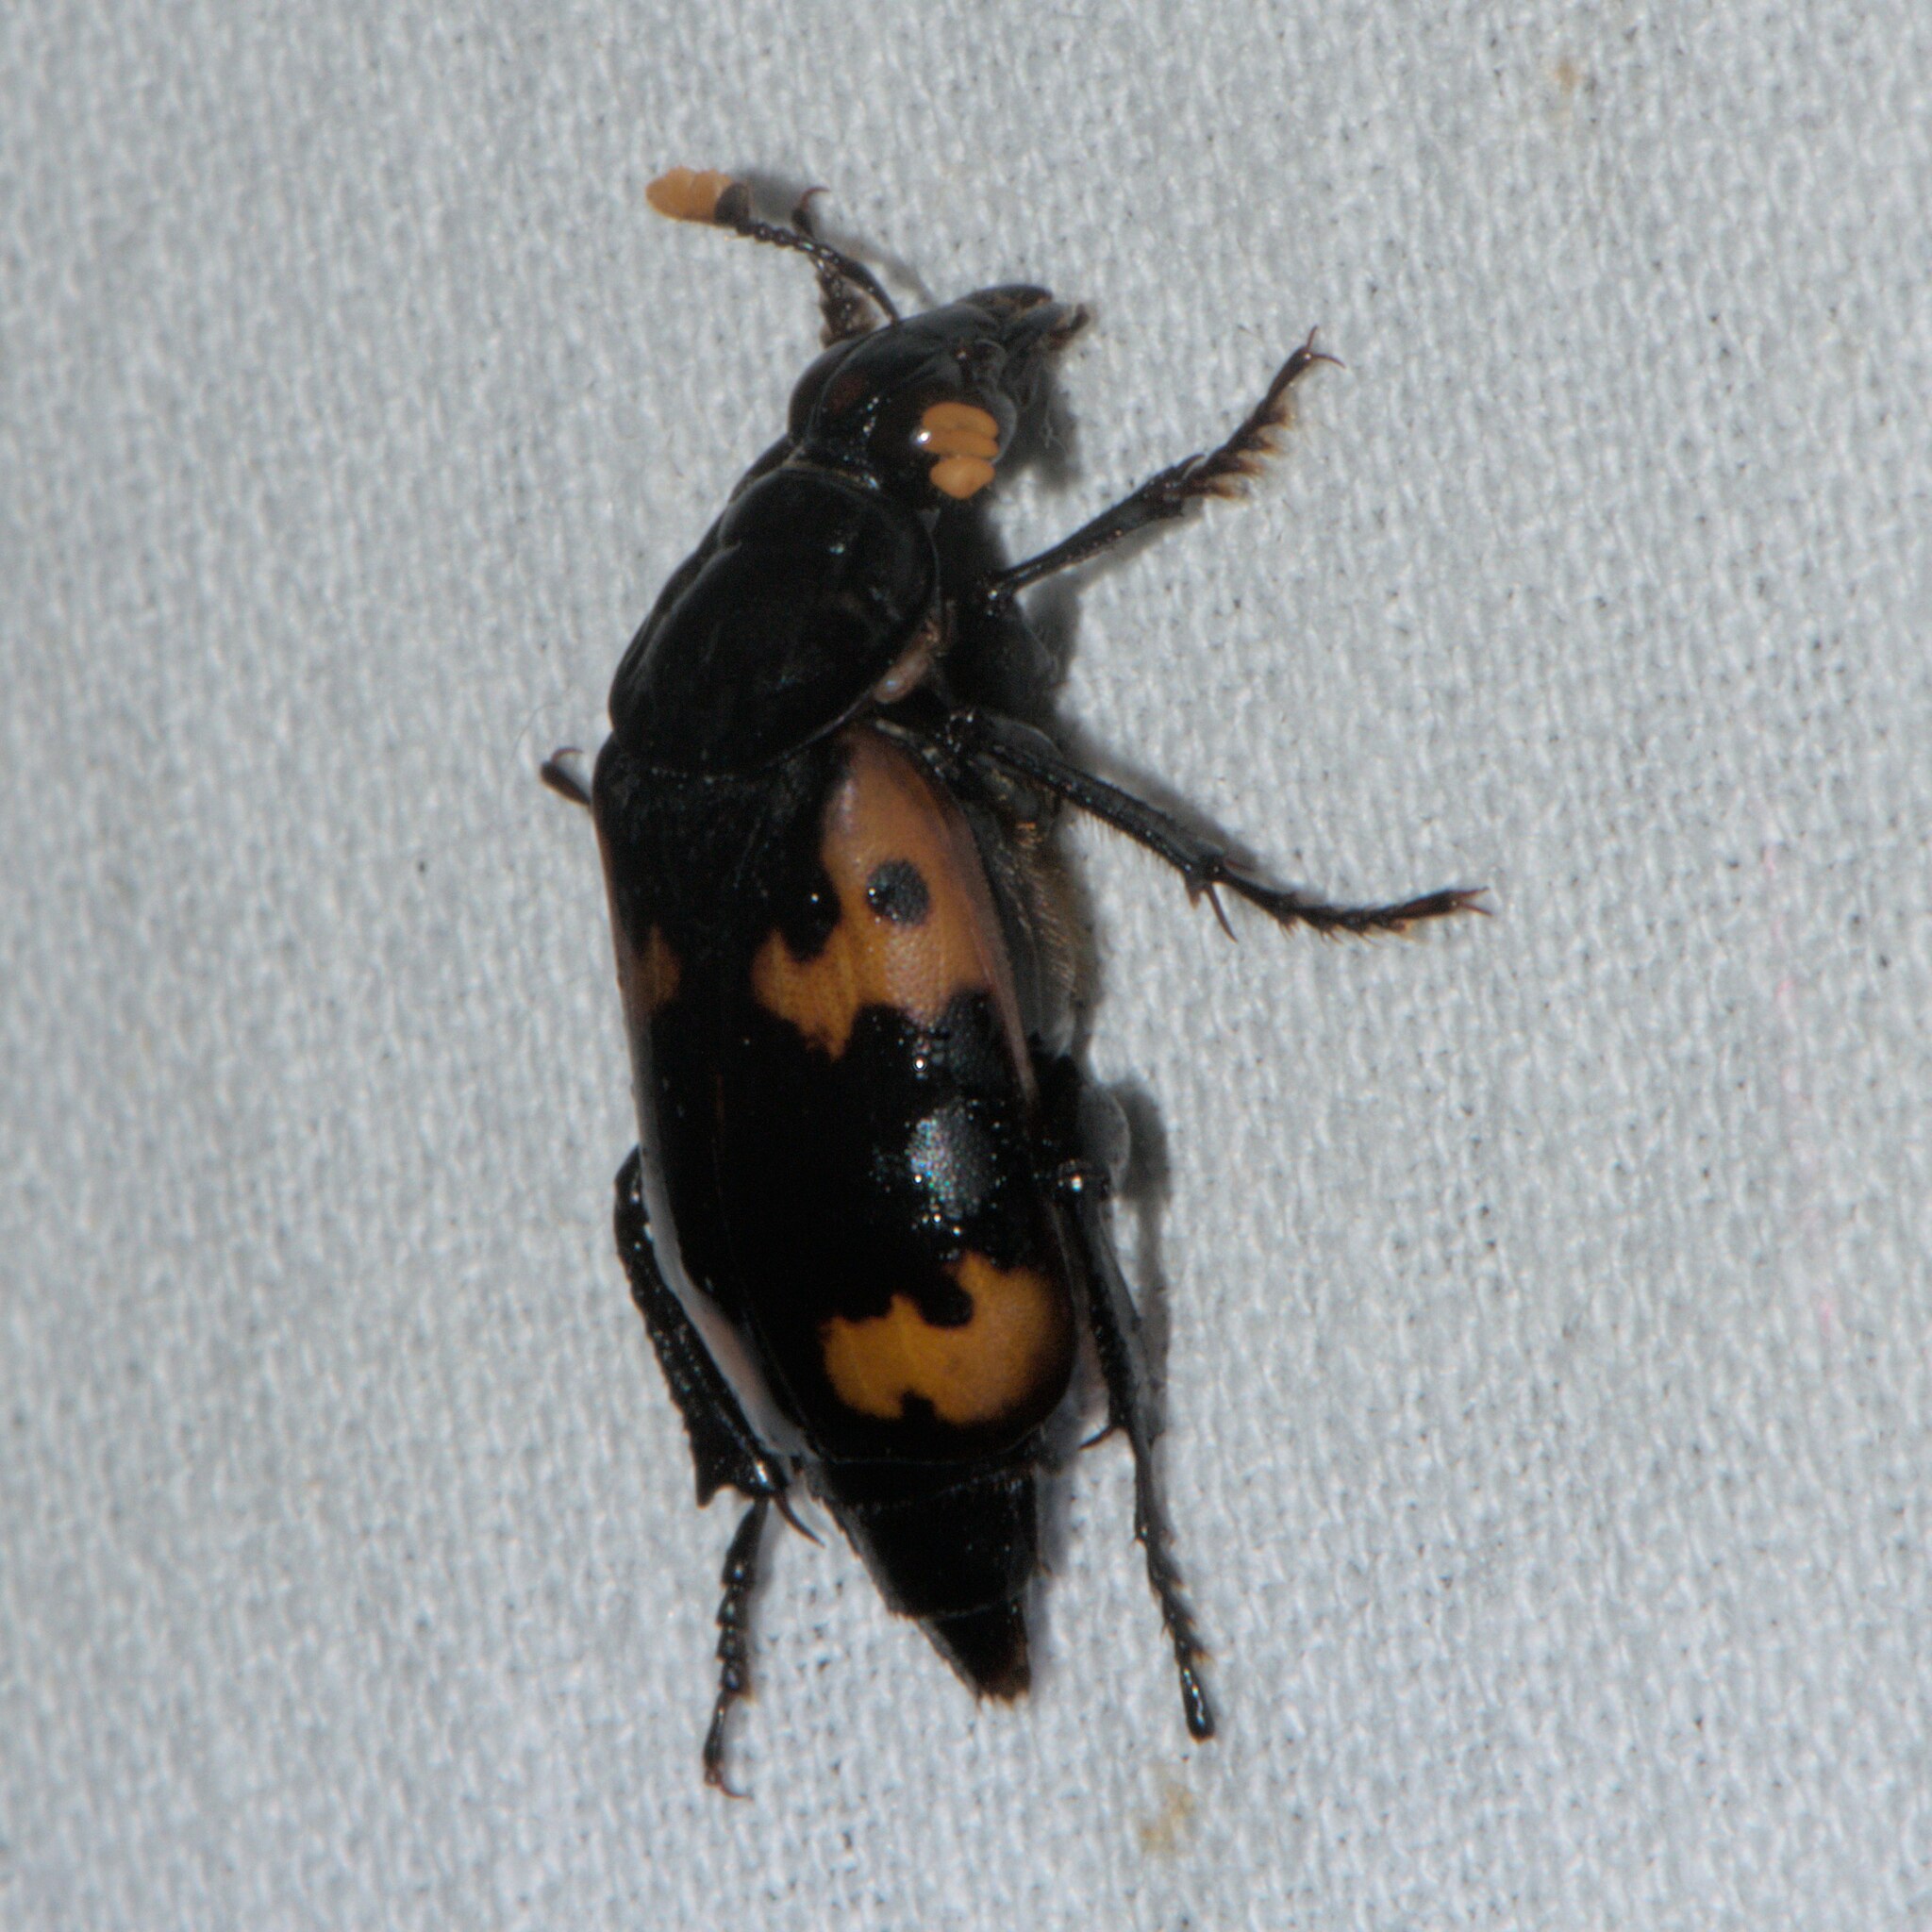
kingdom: Animalia
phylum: Arthropoda
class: Insecta
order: Coleoptera
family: Staphylinidae
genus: Nicrophorus
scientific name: Nicrophorus nepalensis
